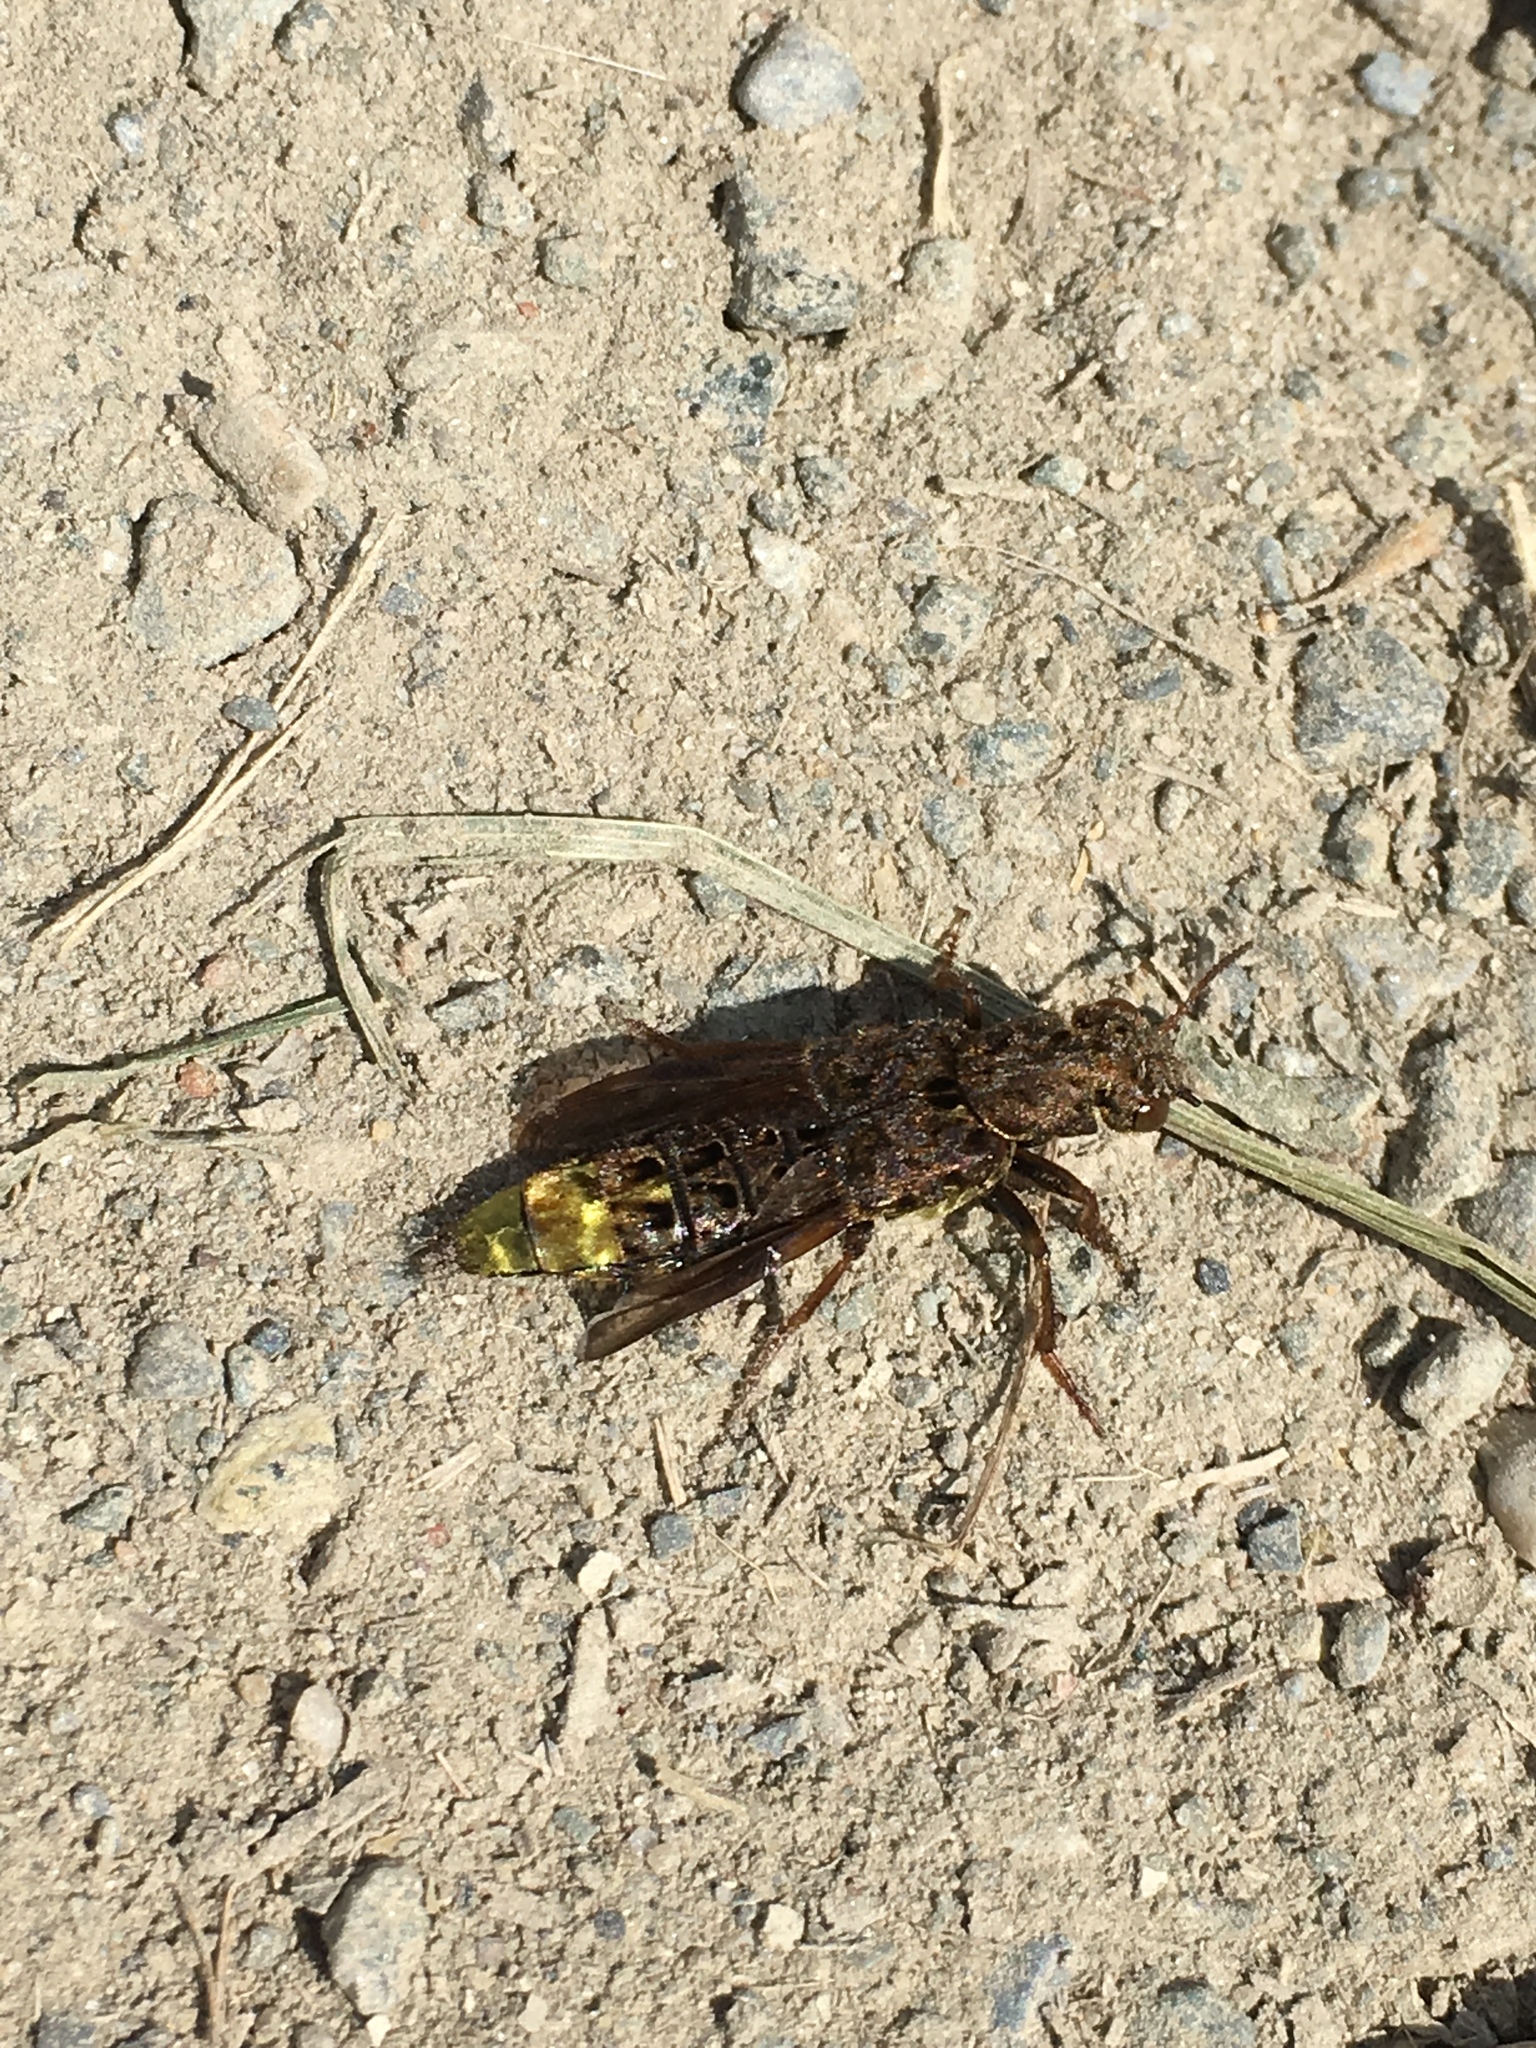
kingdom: Animalia
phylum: Arthropoda
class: Insecta
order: Coleoptera
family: Staphylinidae
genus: Ontholestes
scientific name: Ontholestes cingulatus
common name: Gold-and-brown rove beetle
